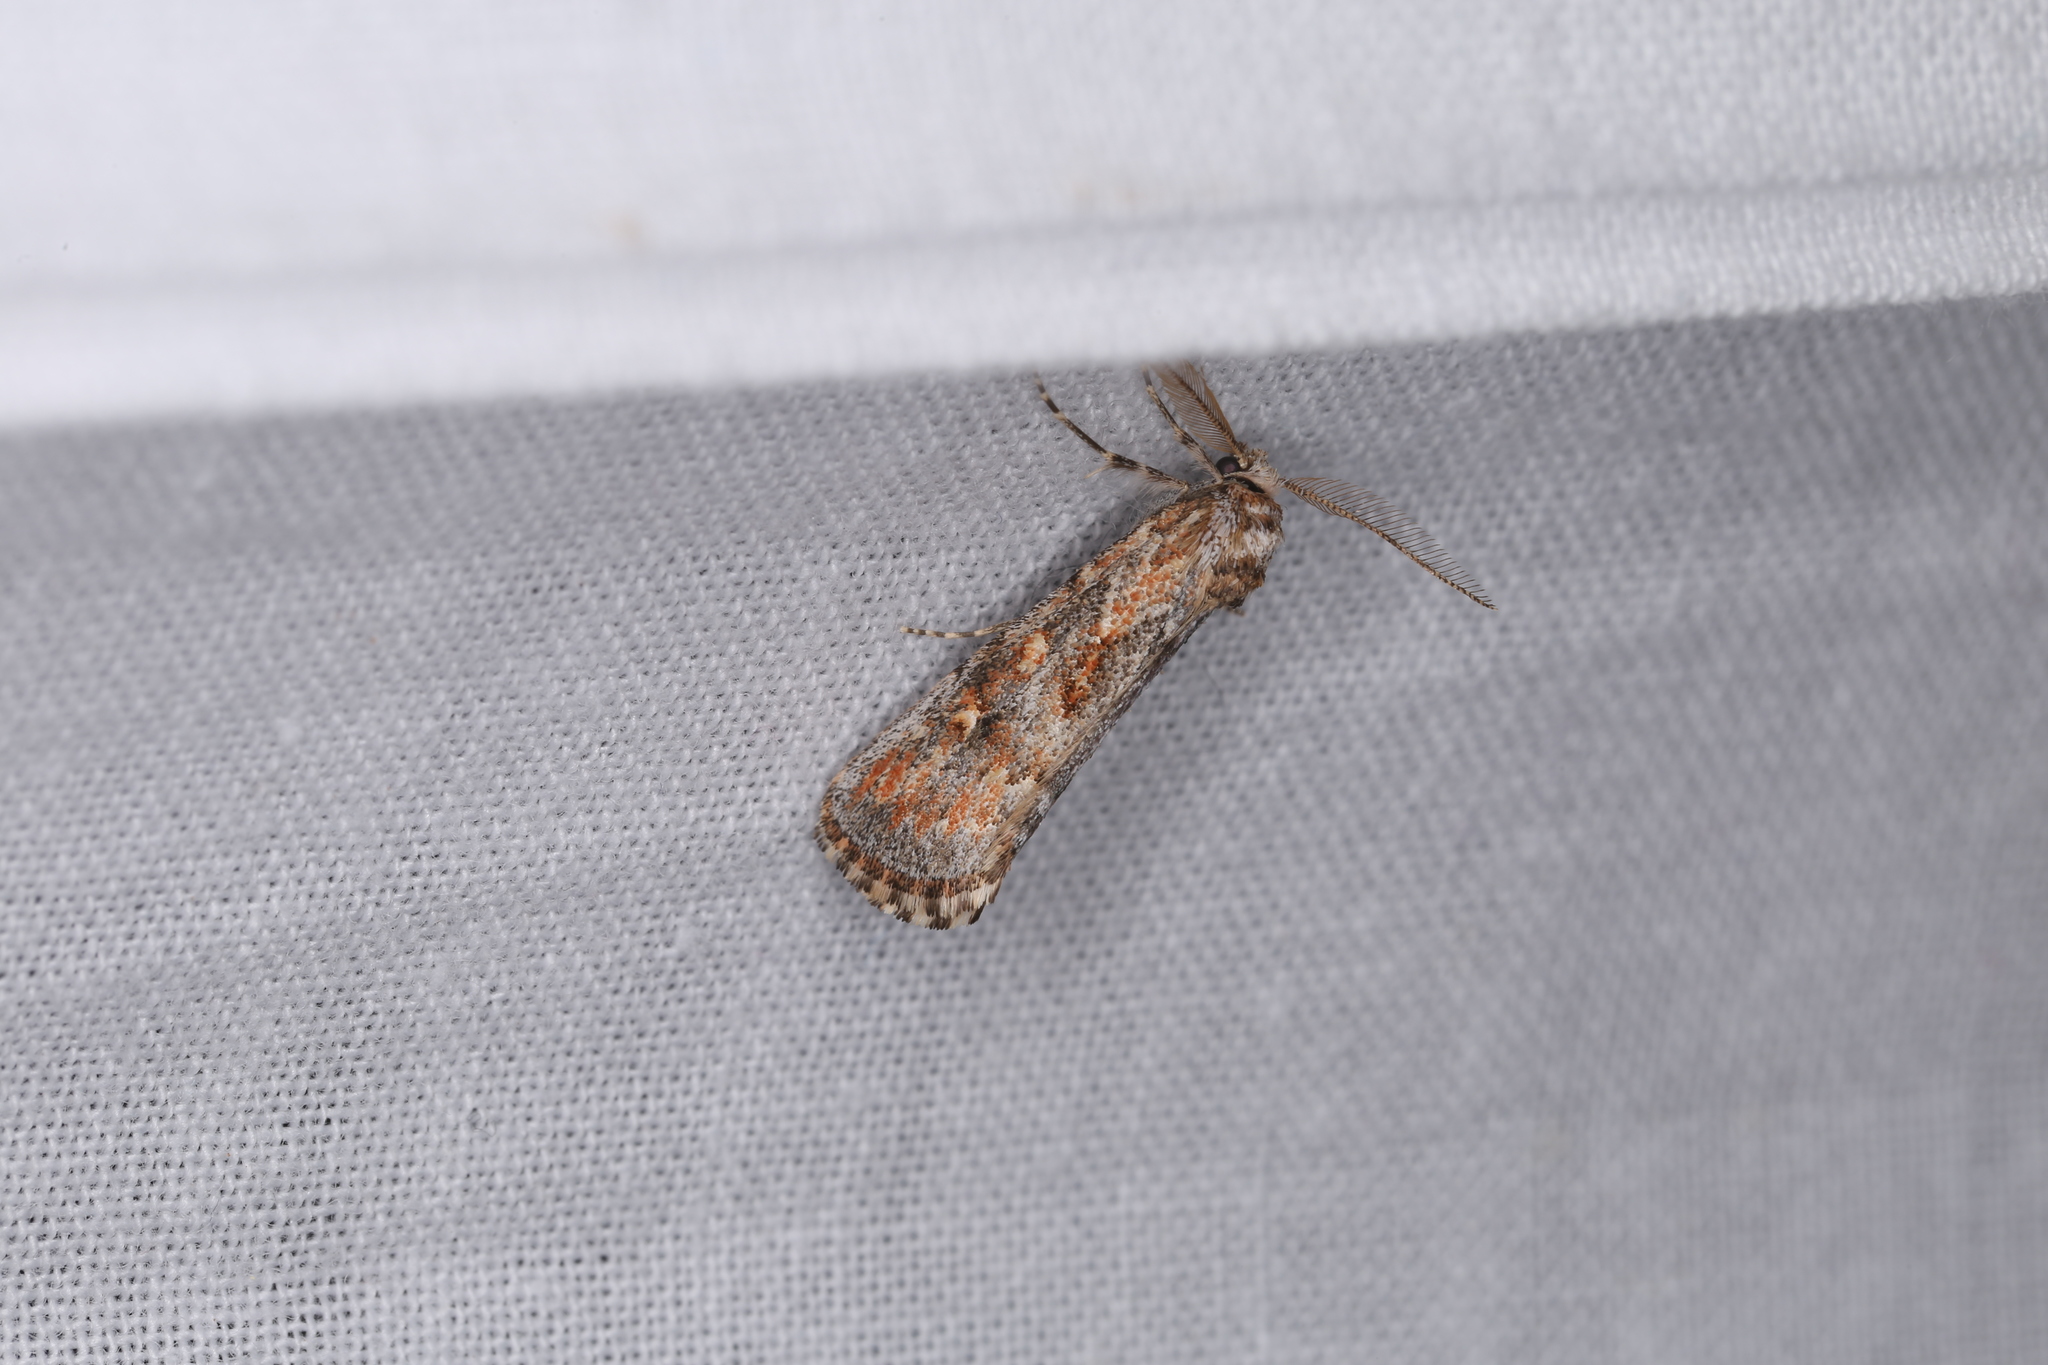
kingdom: Animalia
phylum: Arthropoda
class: Insecta
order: Lepidoptera
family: Noctuidae
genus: Eremochroa
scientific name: Eremochroa paradesma
